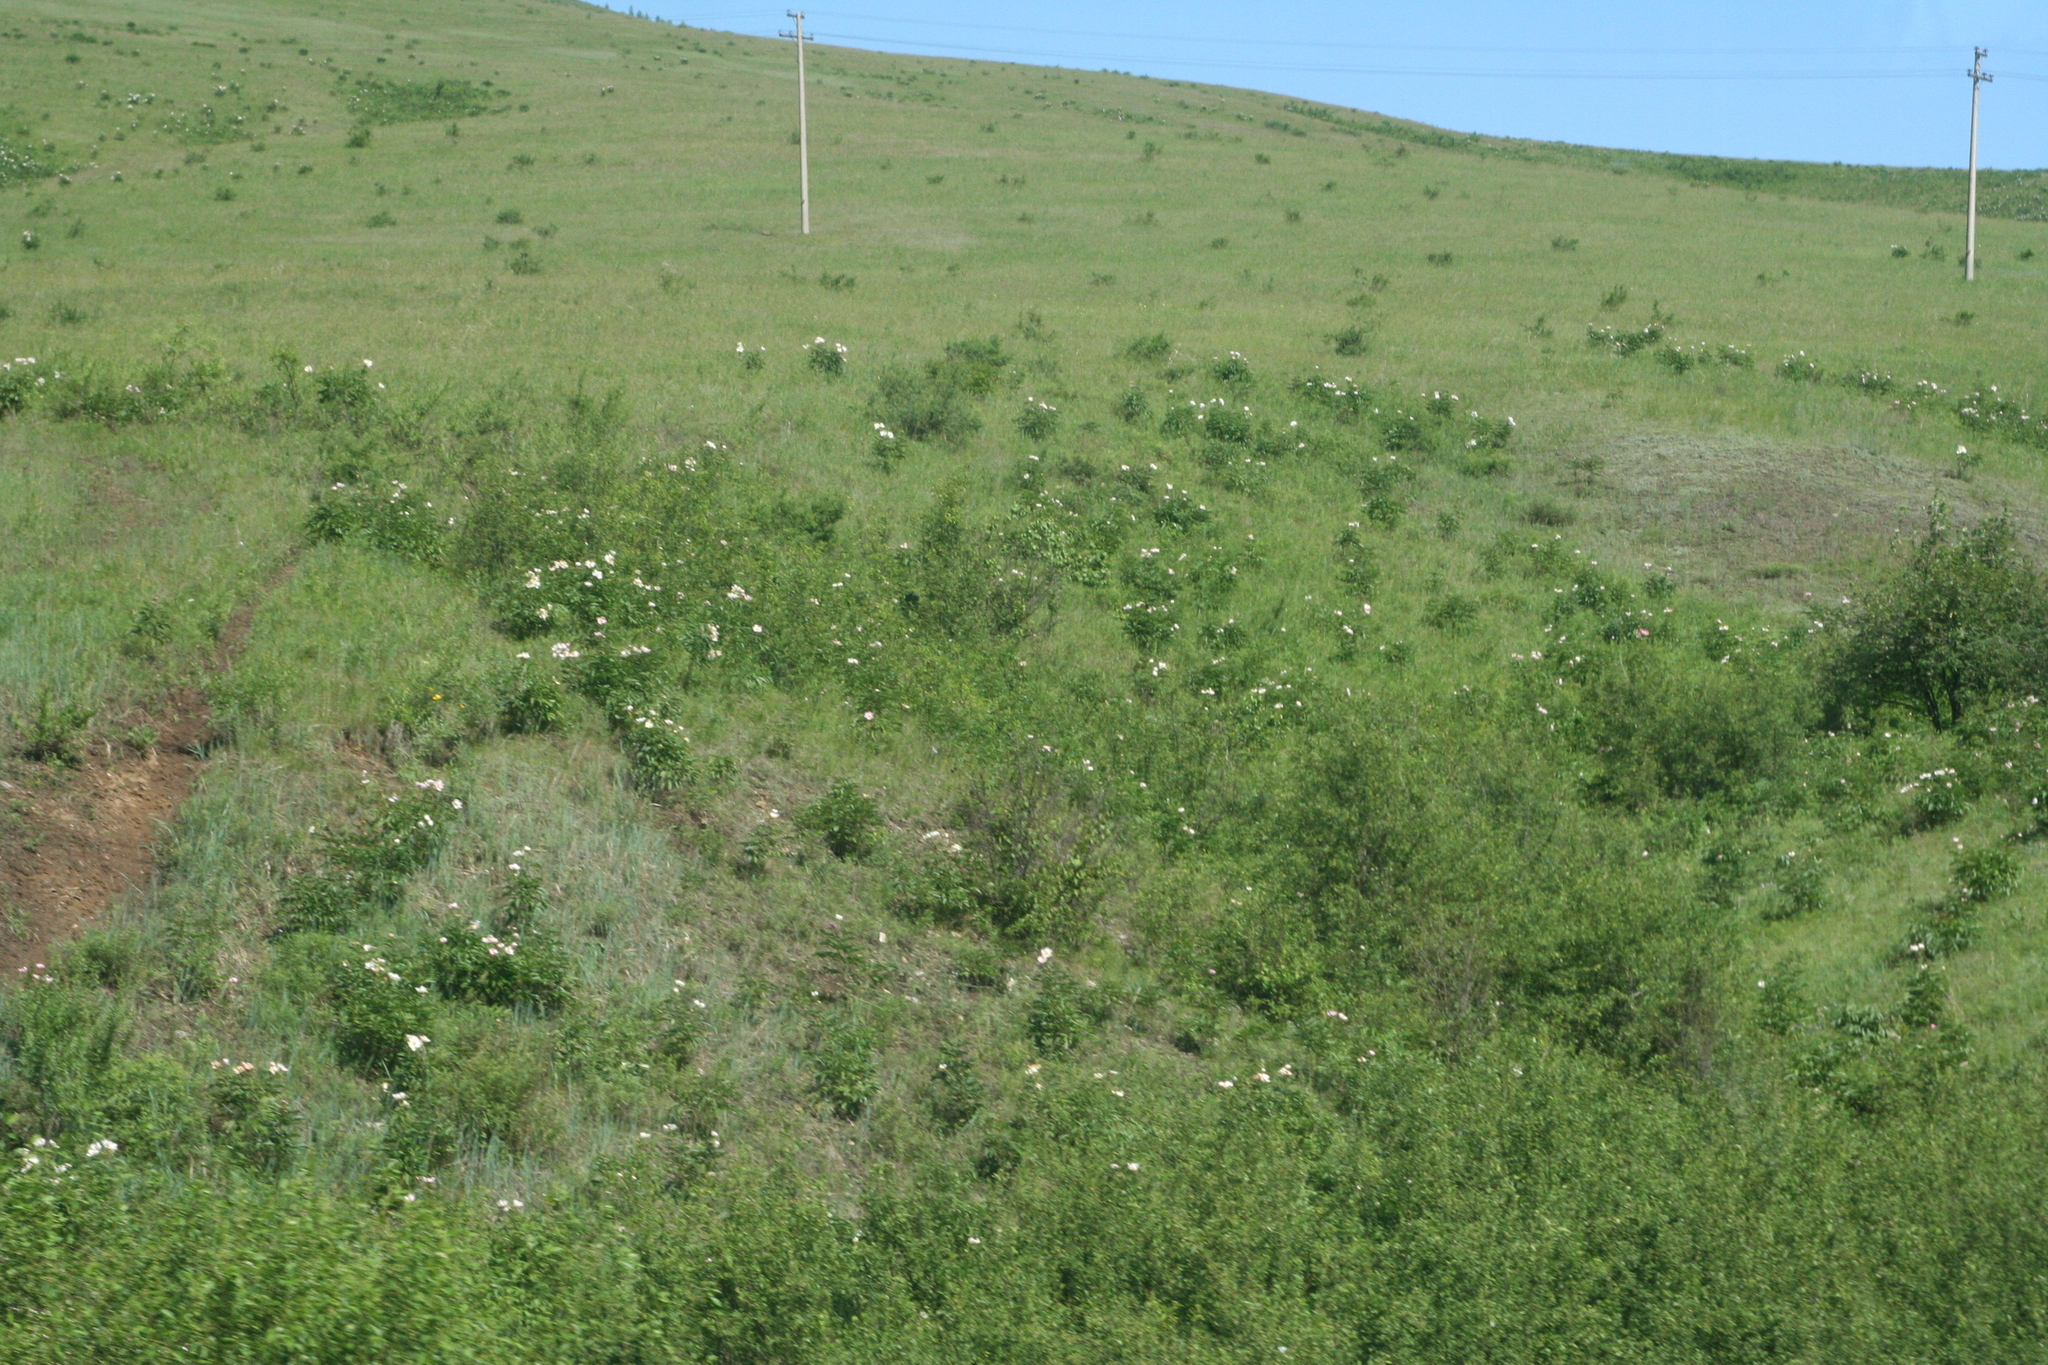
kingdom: Plantae
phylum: Tracheophyta
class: Magnoliopsida
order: Saxifragales
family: Paeoniaceae
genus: Paeonia
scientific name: Paeonia lactiflora
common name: Chinese peony
